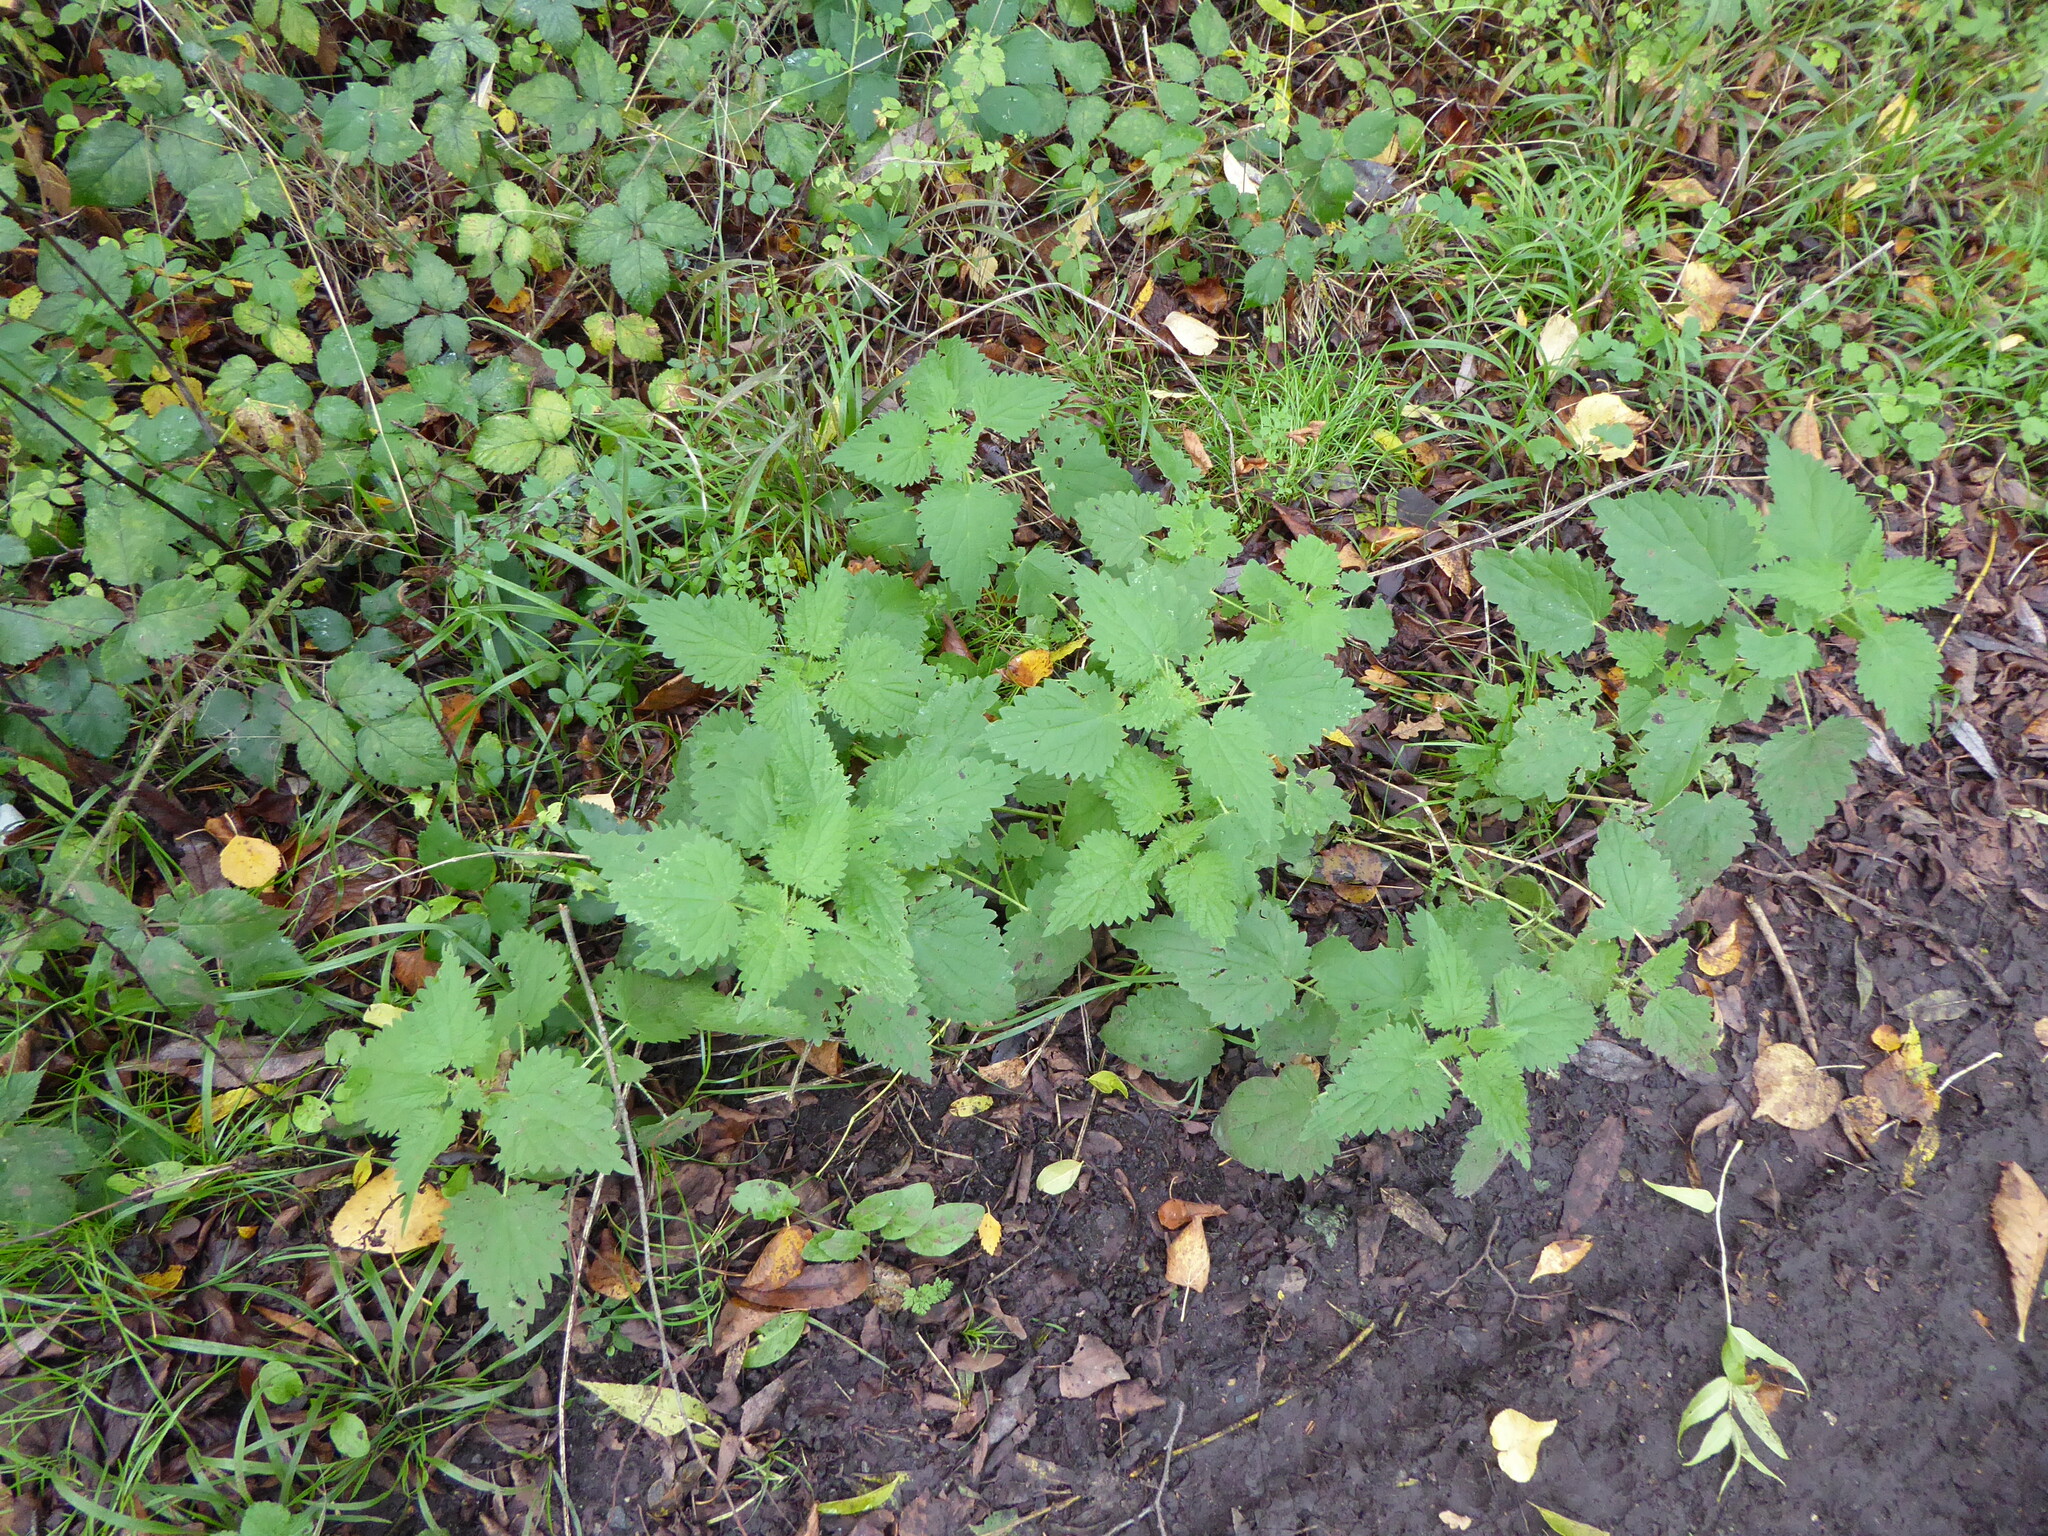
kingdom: Plantae
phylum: Tracheophyta
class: Magnoliopsida
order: Rosales
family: Urticaceae
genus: Urtica
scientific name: Urtica dioica
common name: Common nettle
